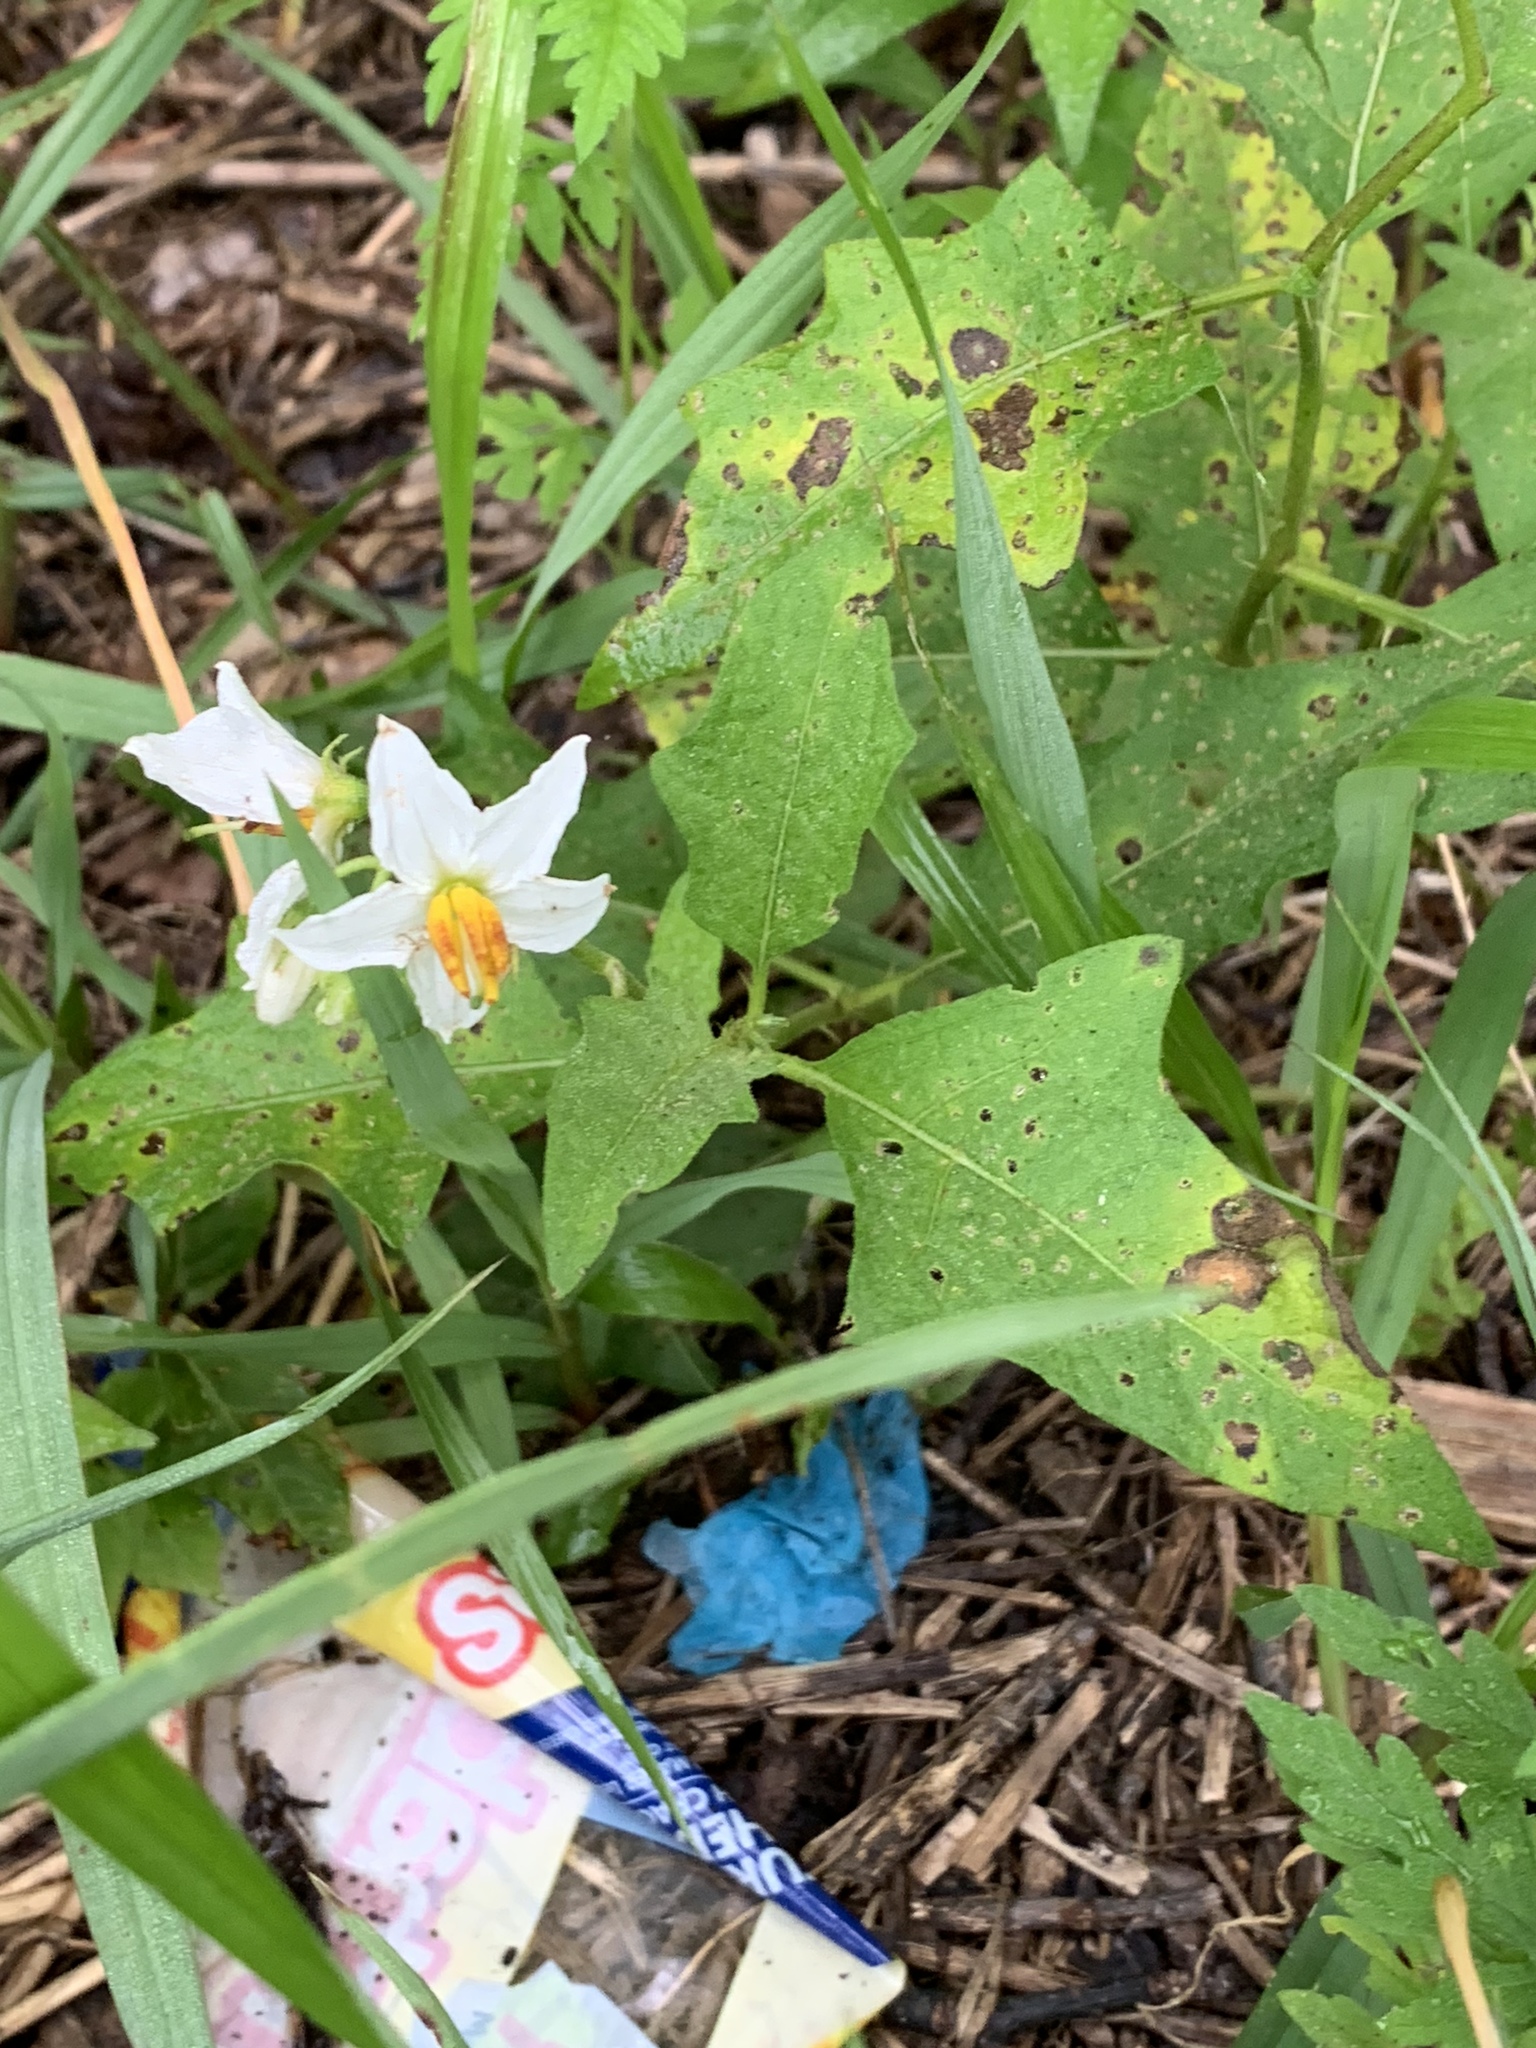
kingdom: Plantae
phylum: Tracheophyta
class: Magnoliopsida
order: Solanales
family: Solanaceae
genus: Solanum
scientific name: Solanum carolinense
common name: Horse-nettle
